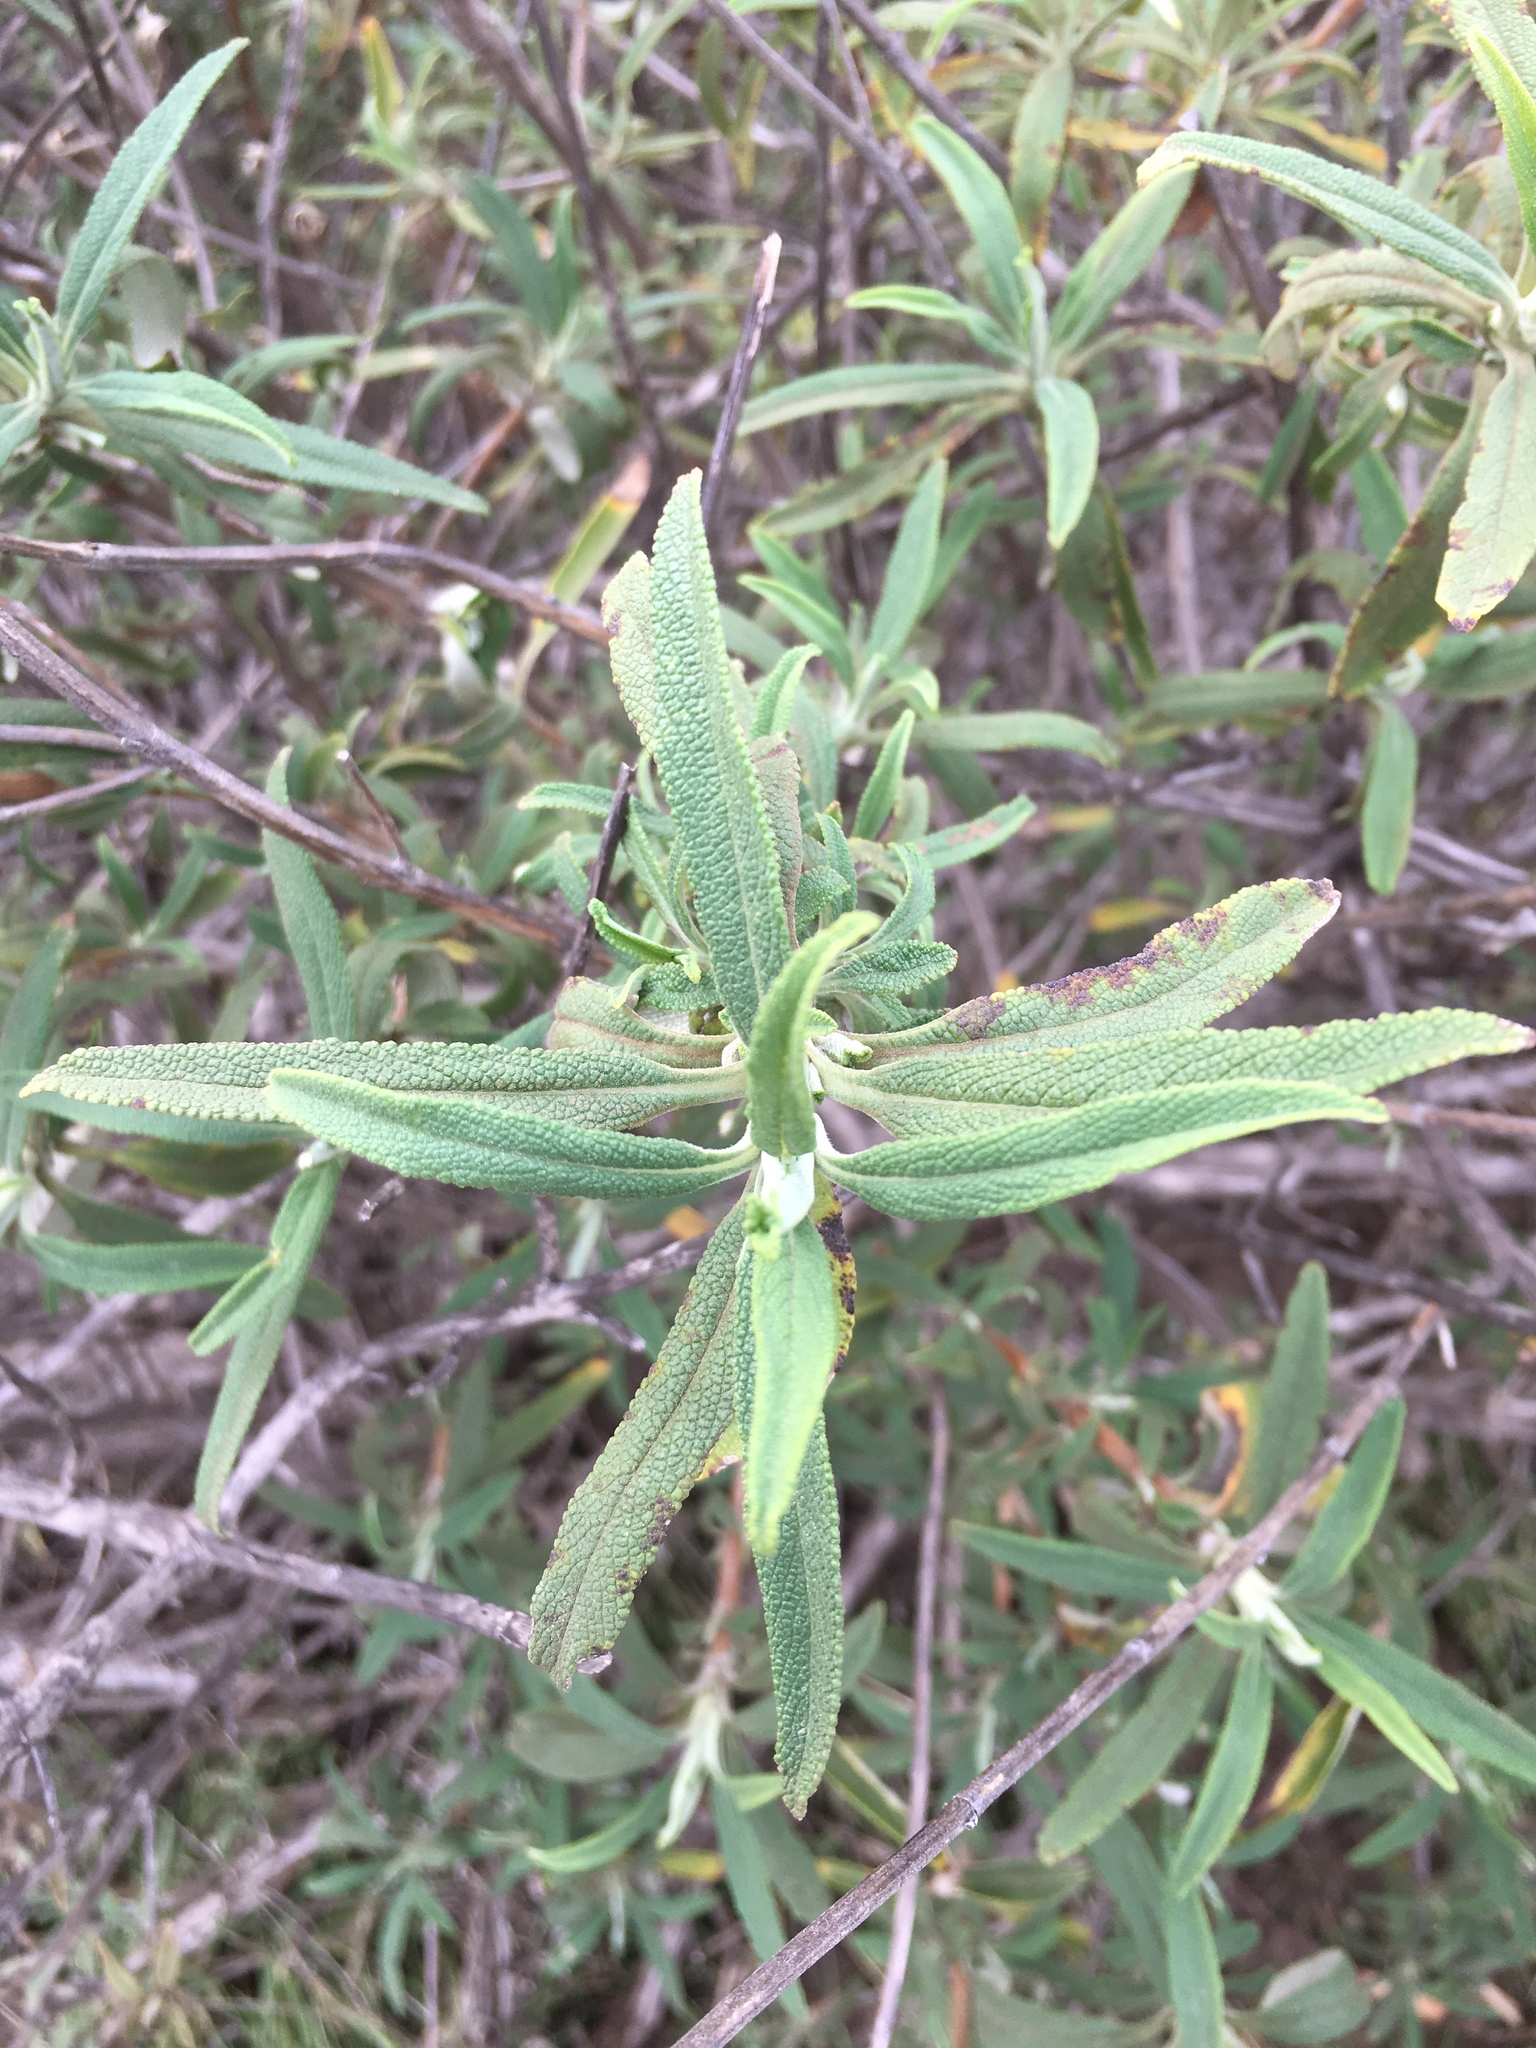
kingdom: Plantae
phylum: Tracheophyta
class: Magnoliopsida
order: Lamiales
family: Lamiaceae
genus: Salvia
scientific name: Salvia mellifera
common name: Black sage
